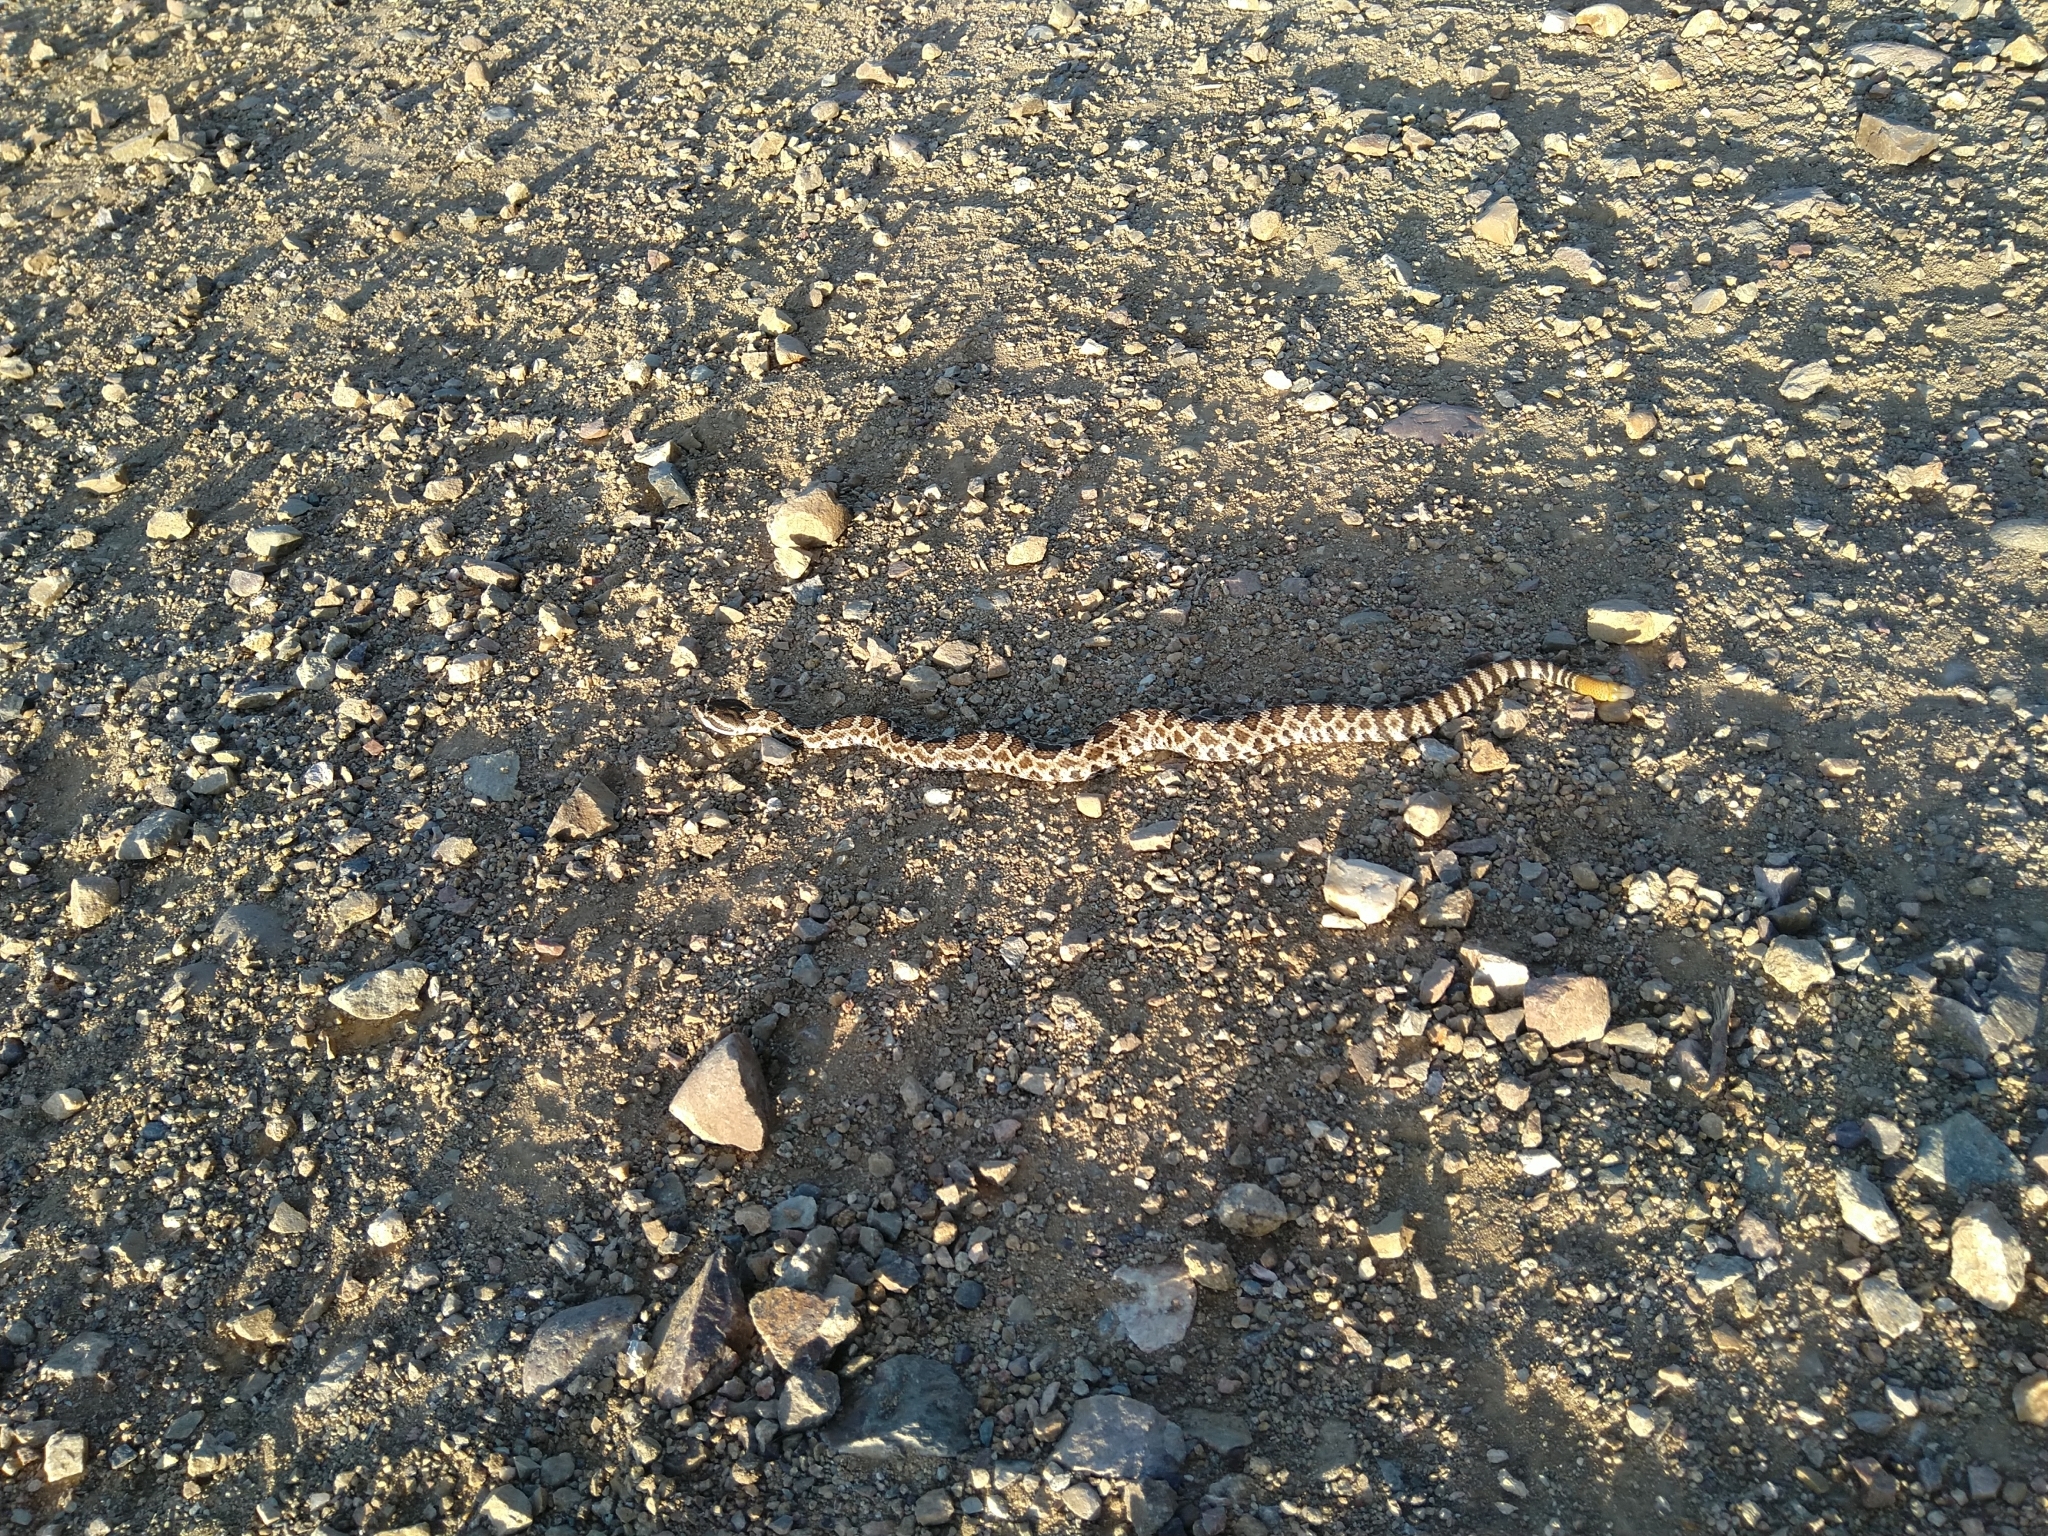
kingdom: Animalia
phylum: Chordata
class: Squamata
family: Viperidae
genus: Crotalus
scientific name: Crotalus oreganus
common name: Abyssus
